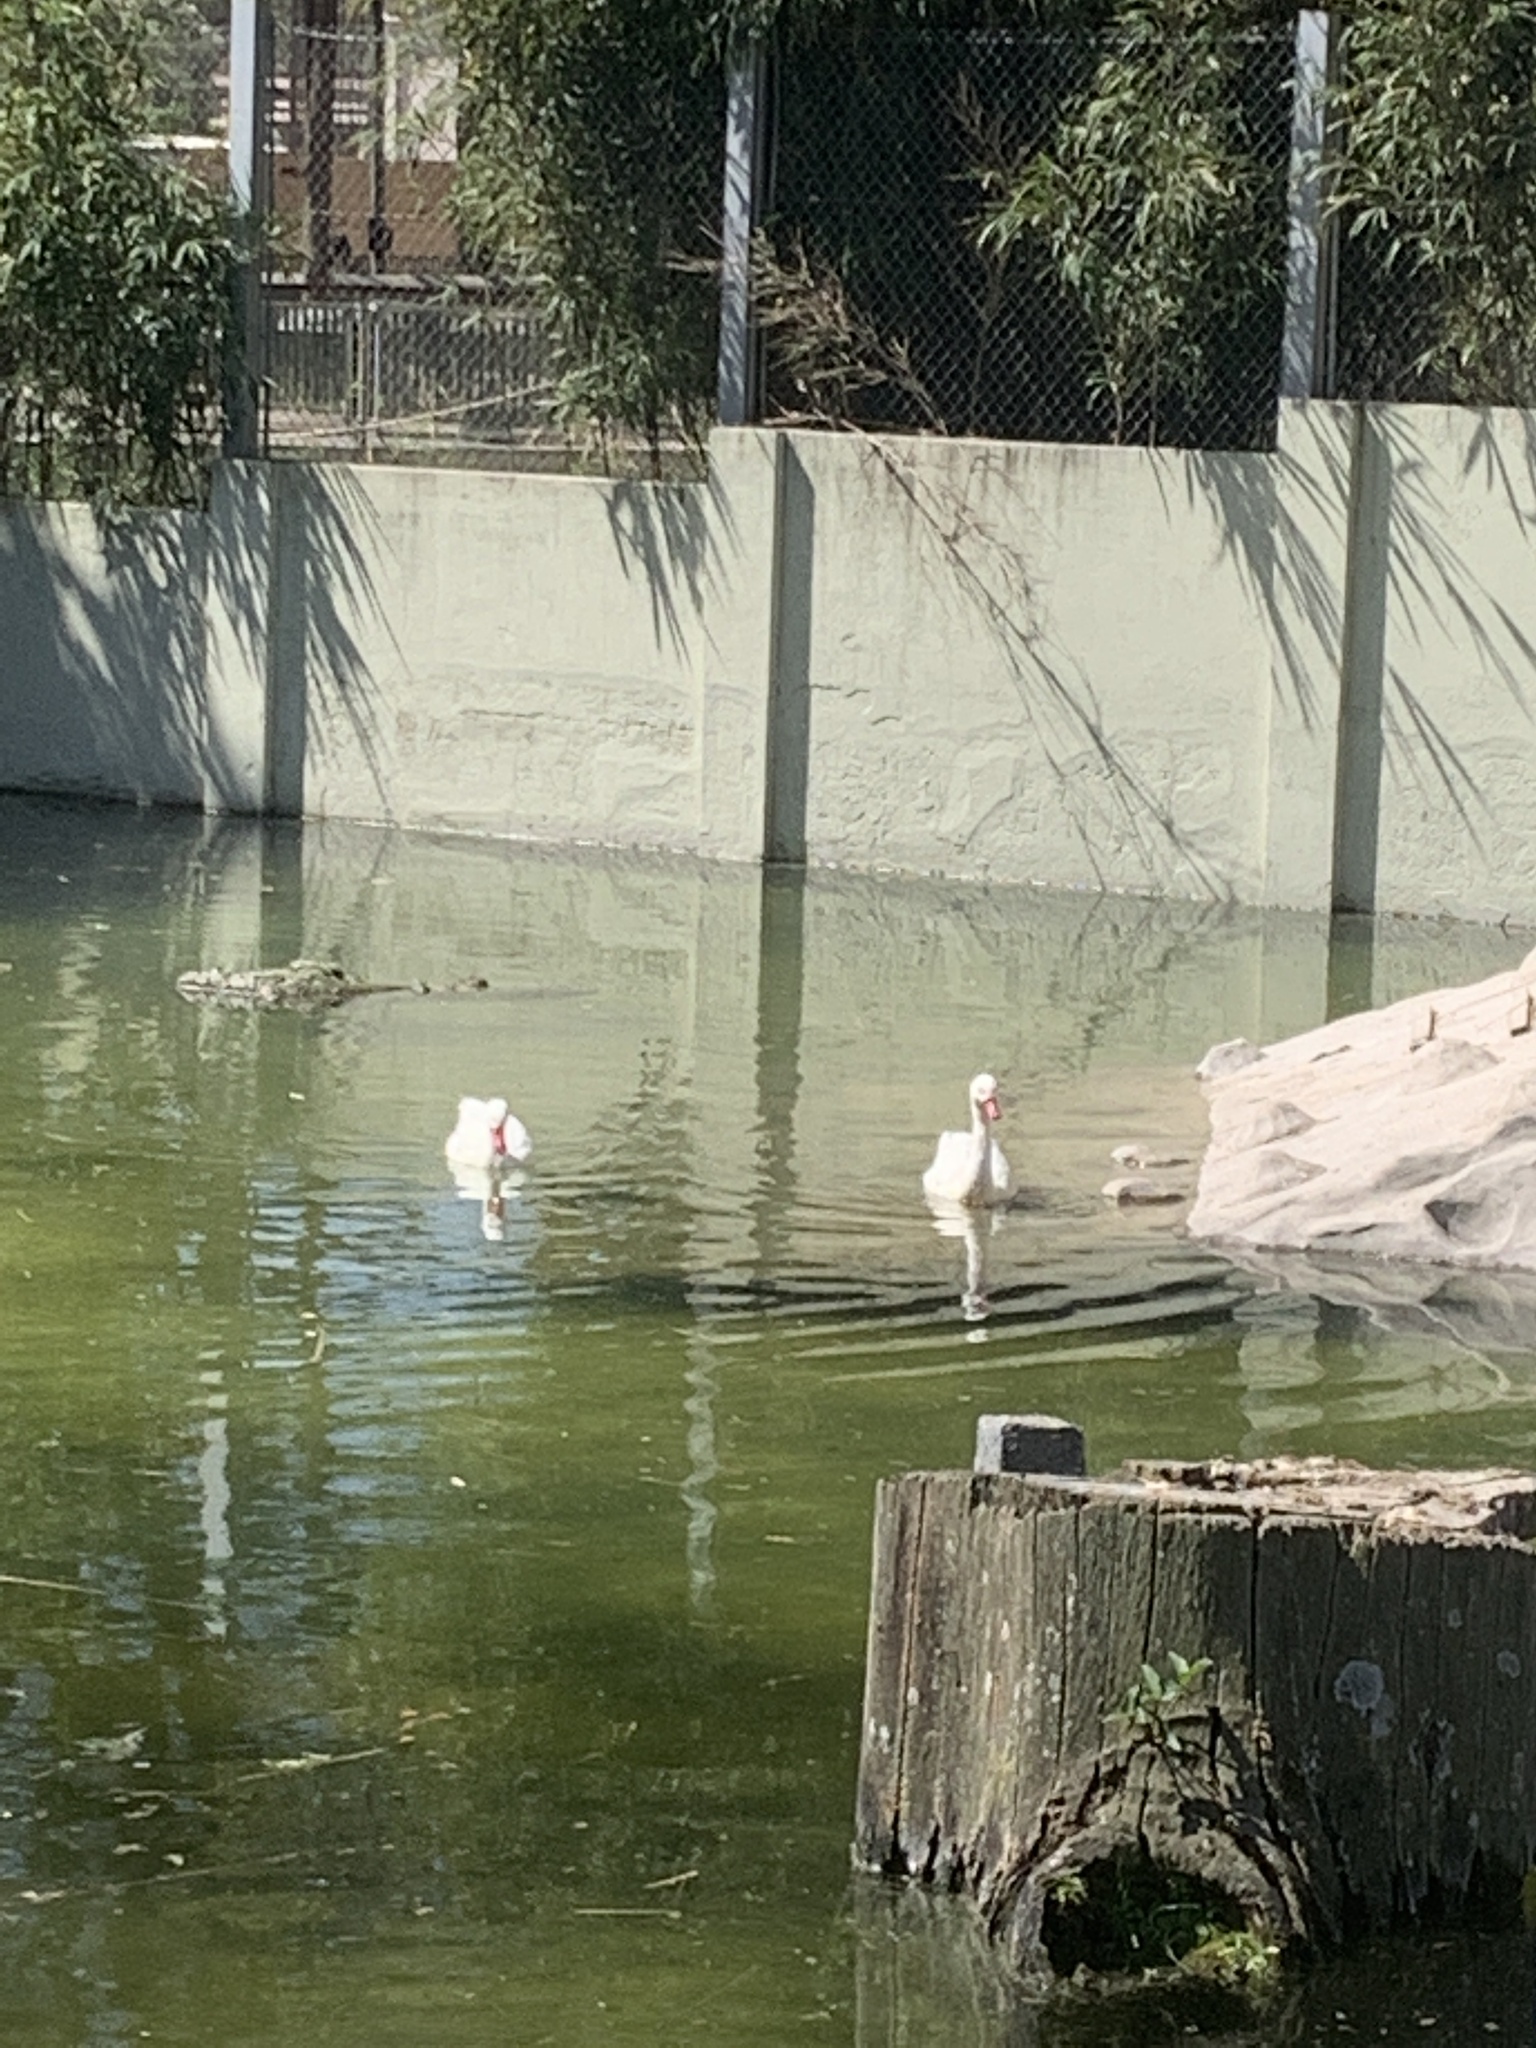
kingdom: Animalia
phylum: Chordata
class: Aves
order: Anseriformes
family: Anatidae
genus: Coscoroba
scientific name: Coscoroba coscoroba
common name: Coscoroba swan
